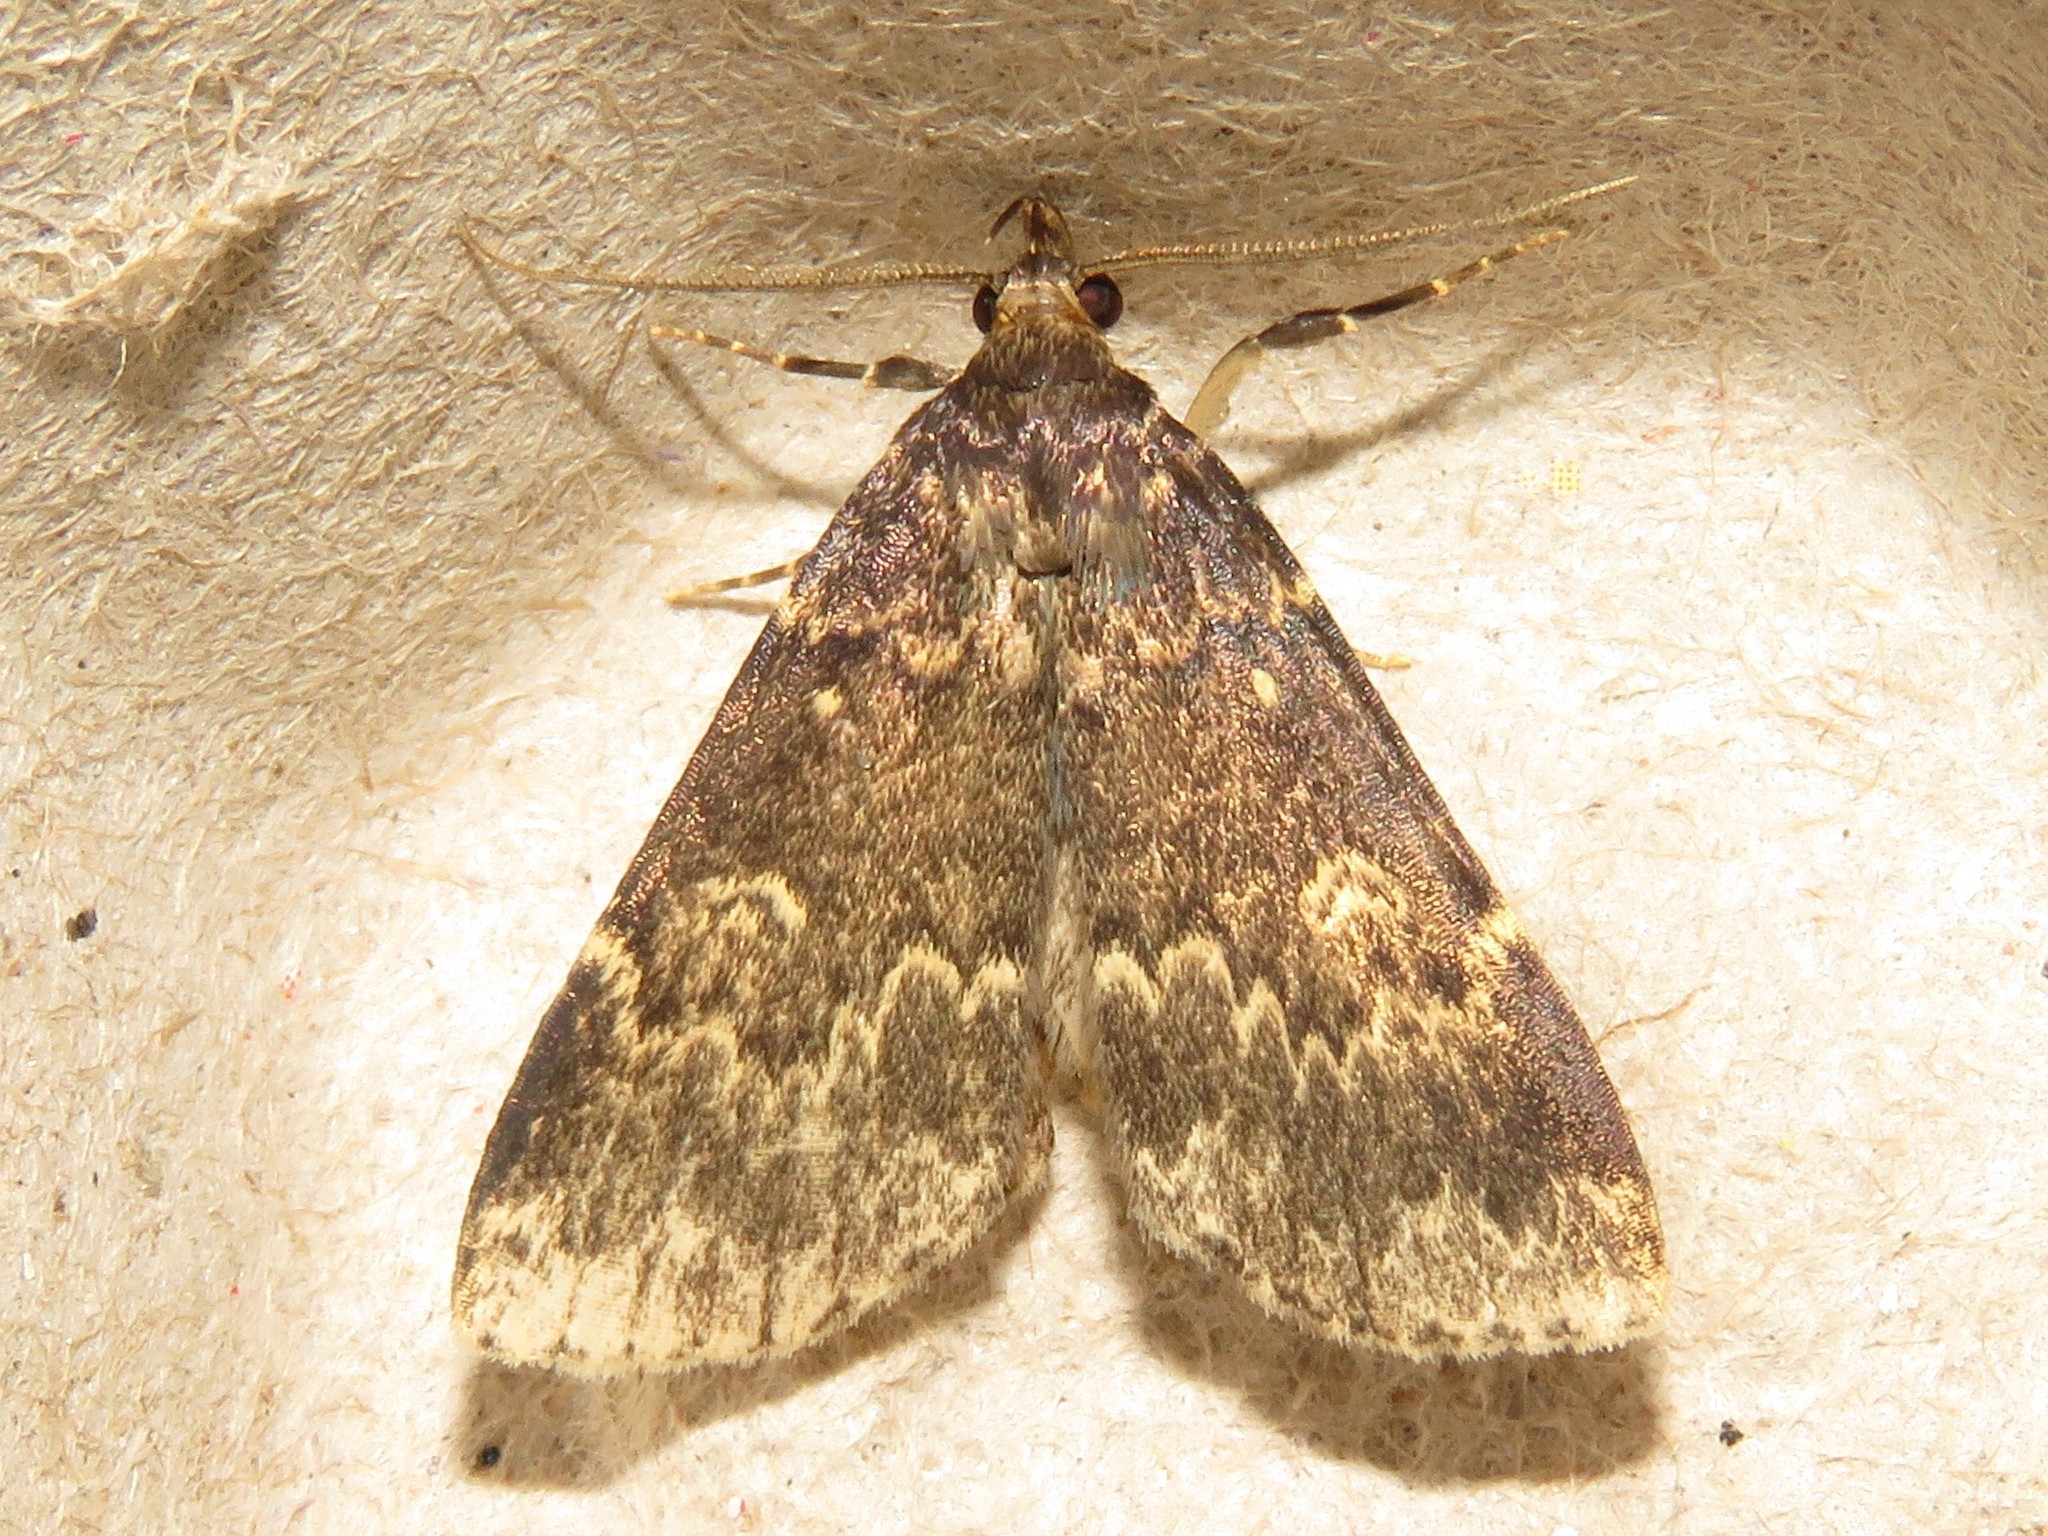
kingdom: Animalia
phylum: Arthropoda
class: Insecta
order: Lepidoptera
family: Erebidae
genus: Idia
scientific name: Idia lubricalis
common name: Twin-striped tabby
